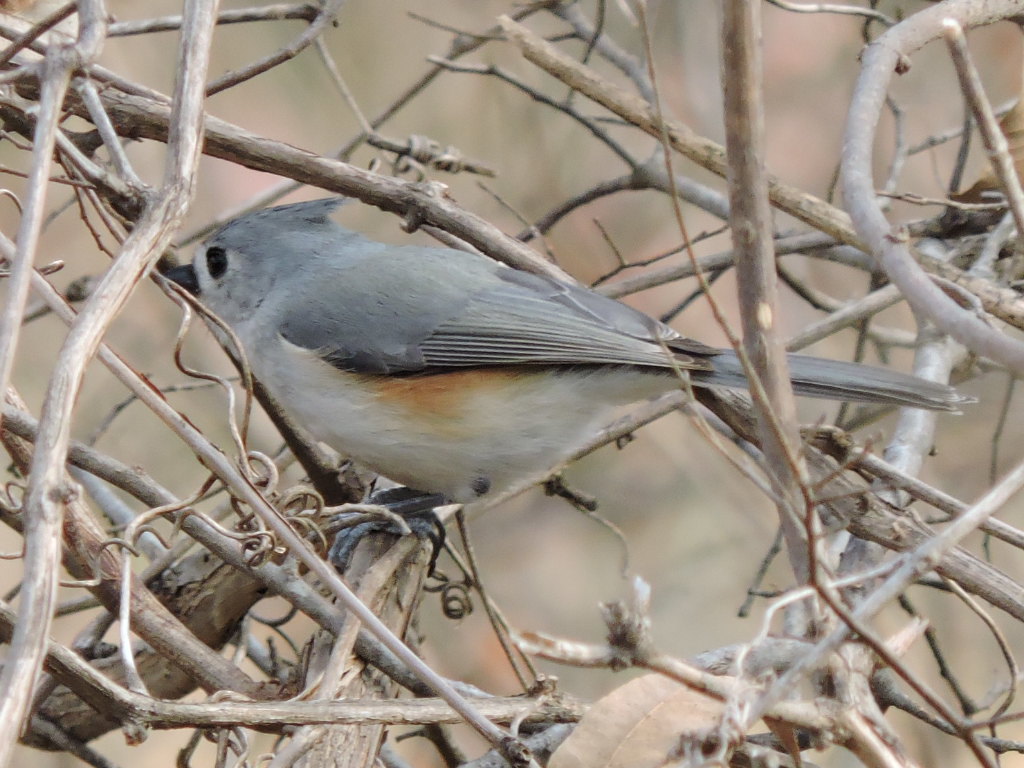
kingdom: Animalia
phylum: Chordata
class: Aves
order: Passeriformes
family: Paridae
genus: Baeolophus
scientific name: Baeolophus bicolor
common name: Tufted titmouse
